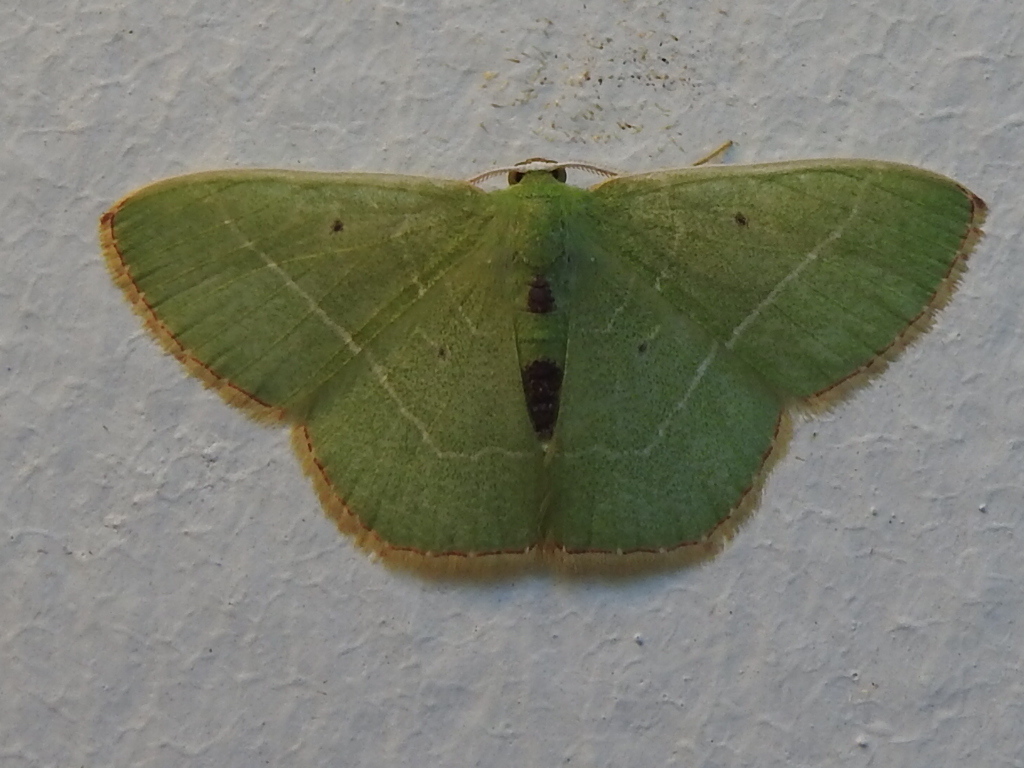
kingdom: Animalia
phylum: Arthropoda
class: Insecta
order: Lepidoptera
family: Geometridae
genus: Nemoria
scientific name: Nemoria karlae
